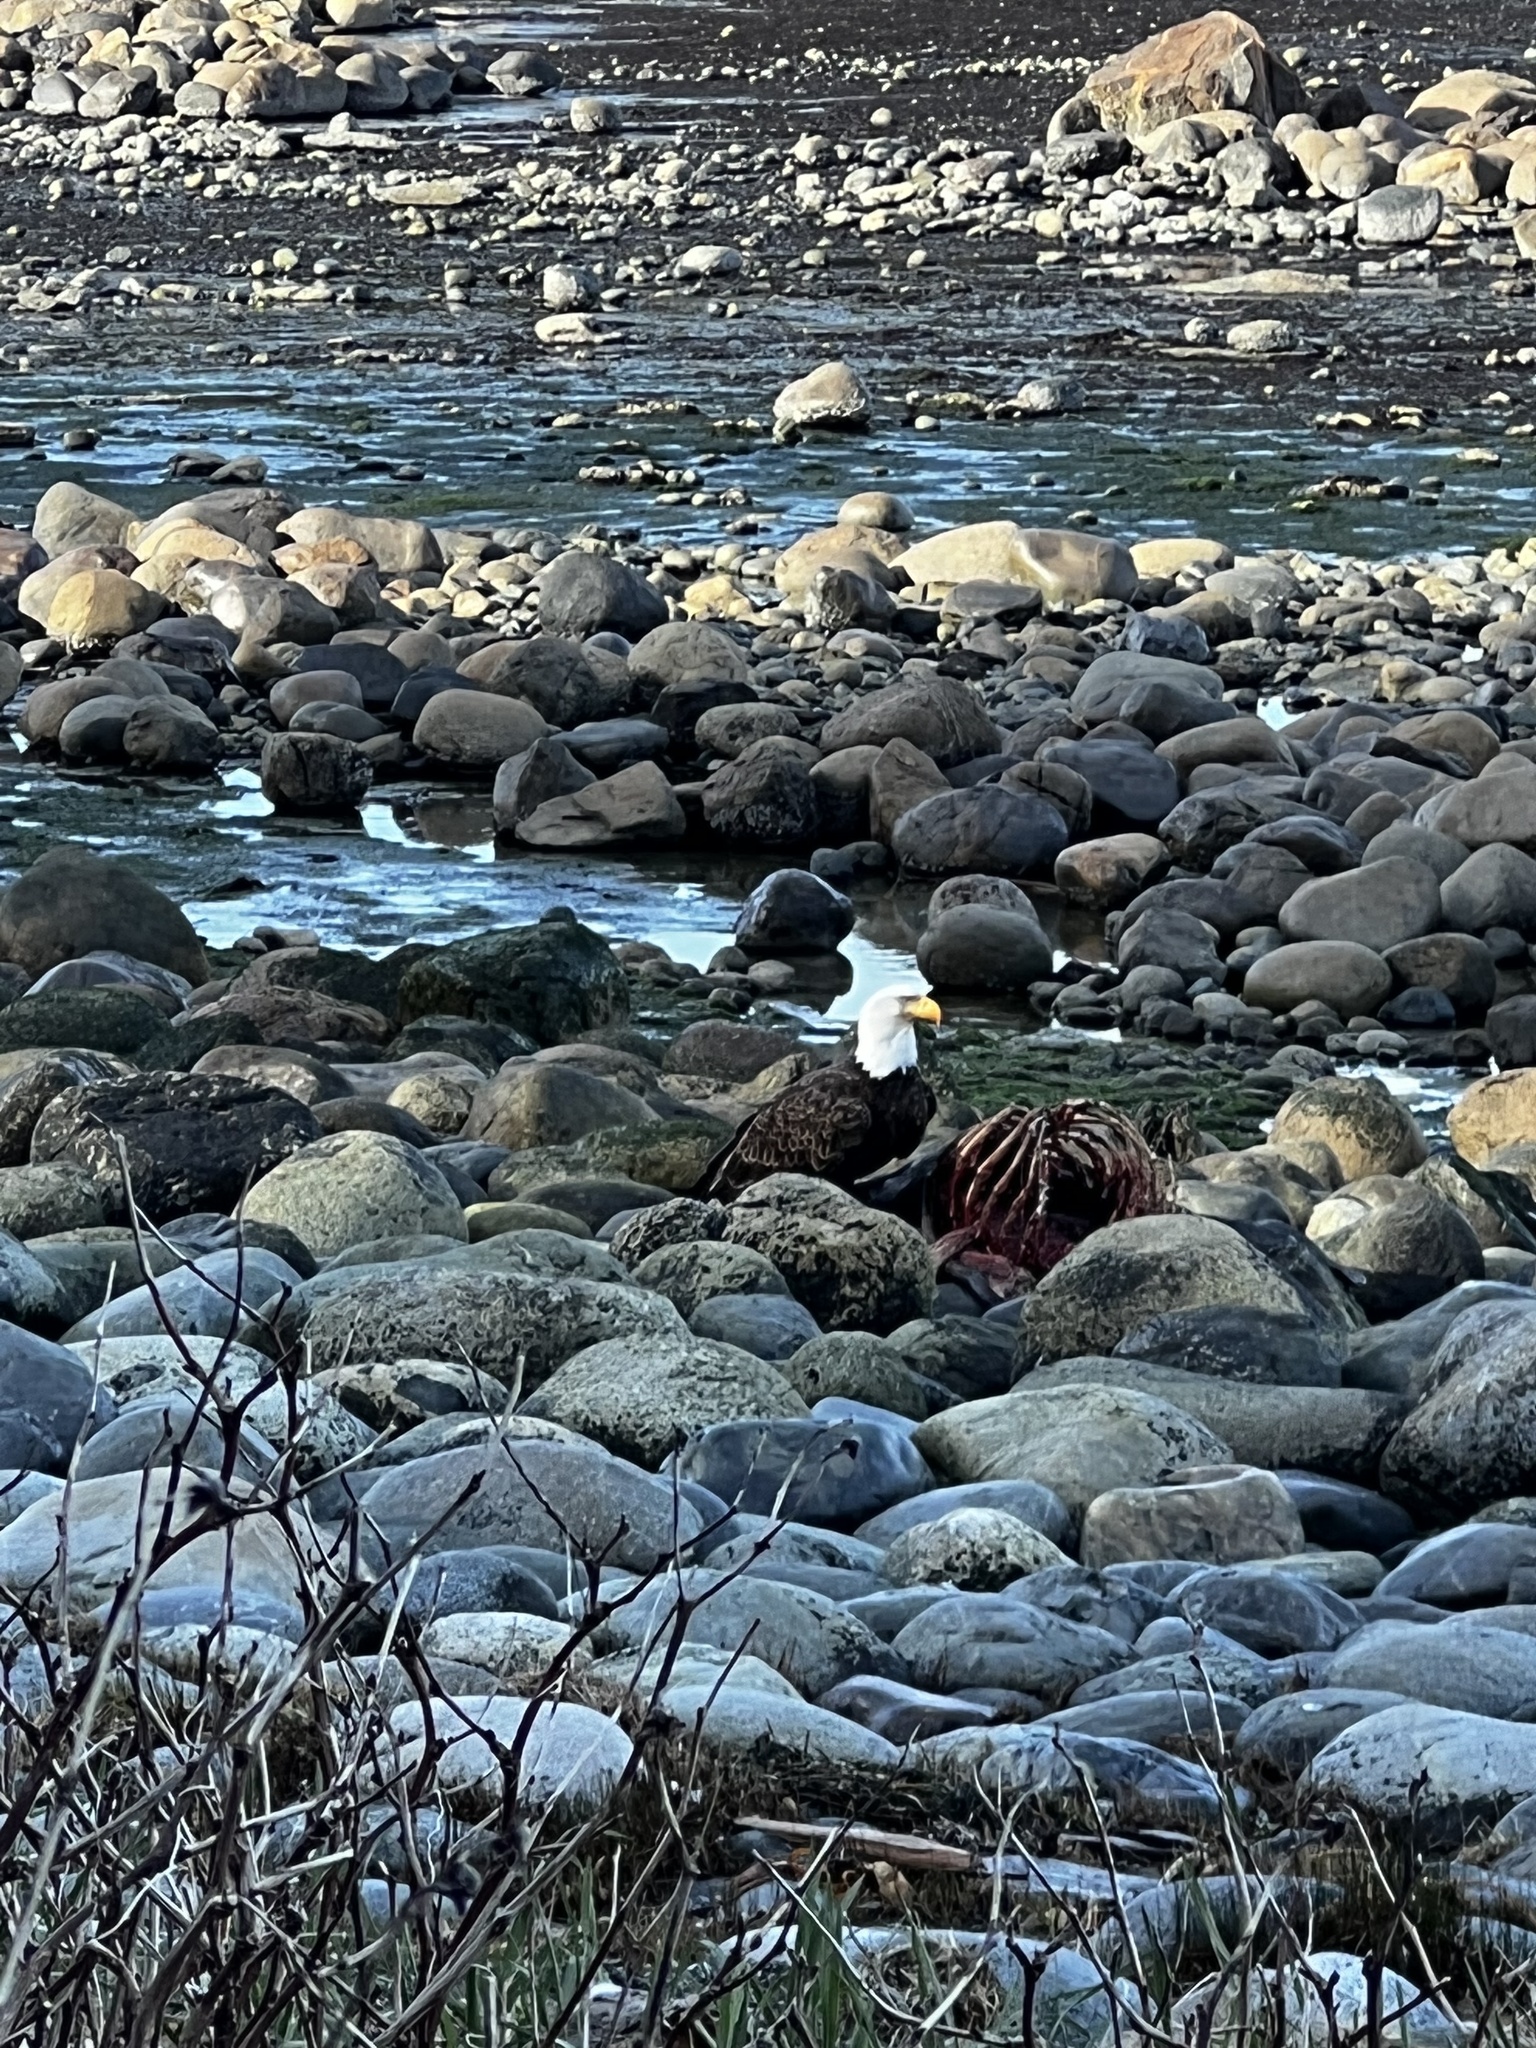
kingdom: Animalia
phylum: Chordata
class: Aves
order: Accipitriformes
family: Accipitridae
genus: Haliaeetus
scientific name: Haliaeetus leucocephalus
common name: Bald eagle
